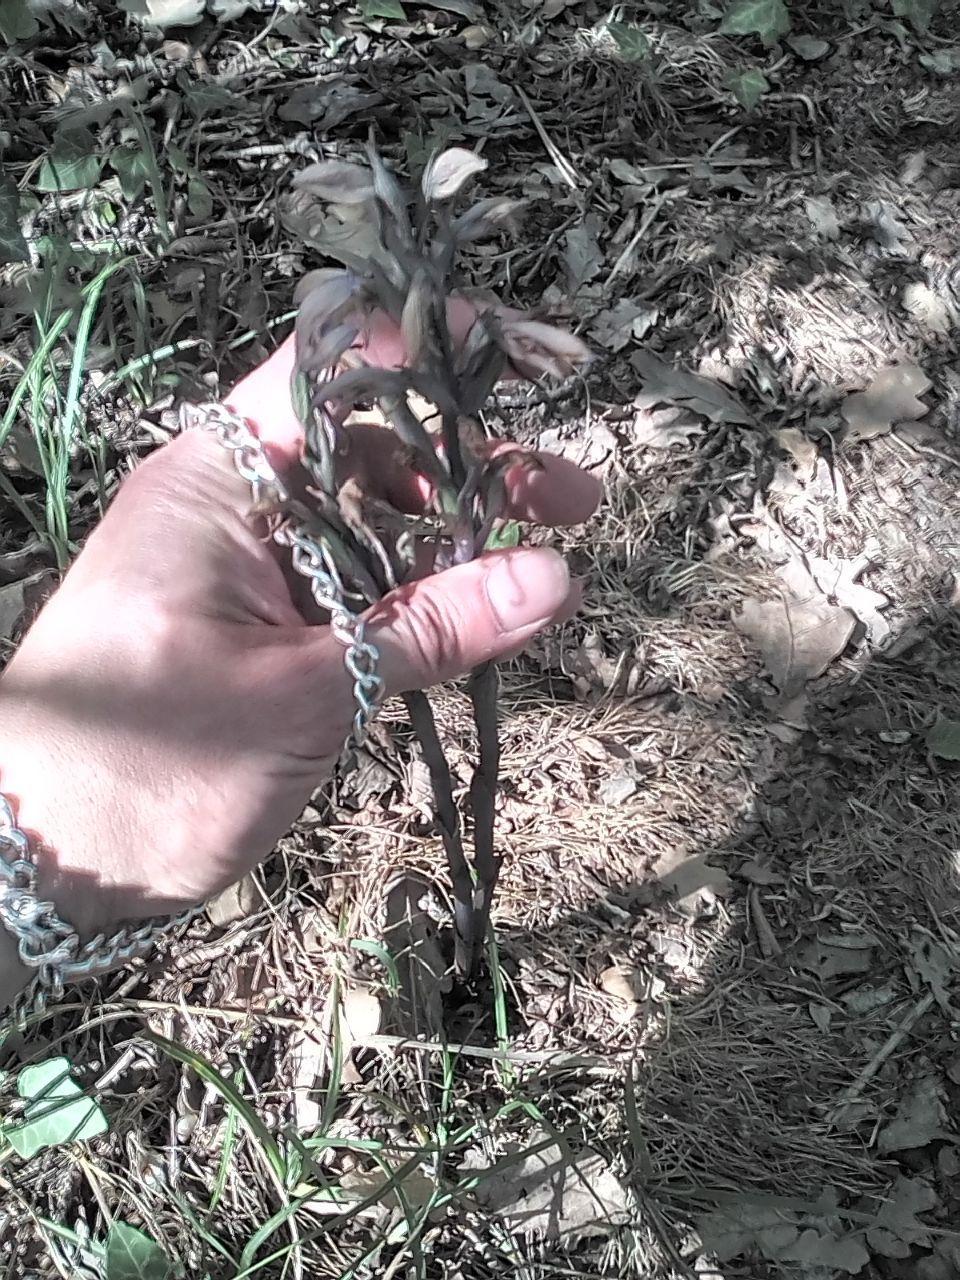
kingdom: Plantae
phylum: Tracheophyta
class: Liliopsida
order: Asparagales
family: Orchidaceae
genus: Limodorum
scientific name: Limodorum abortivum
